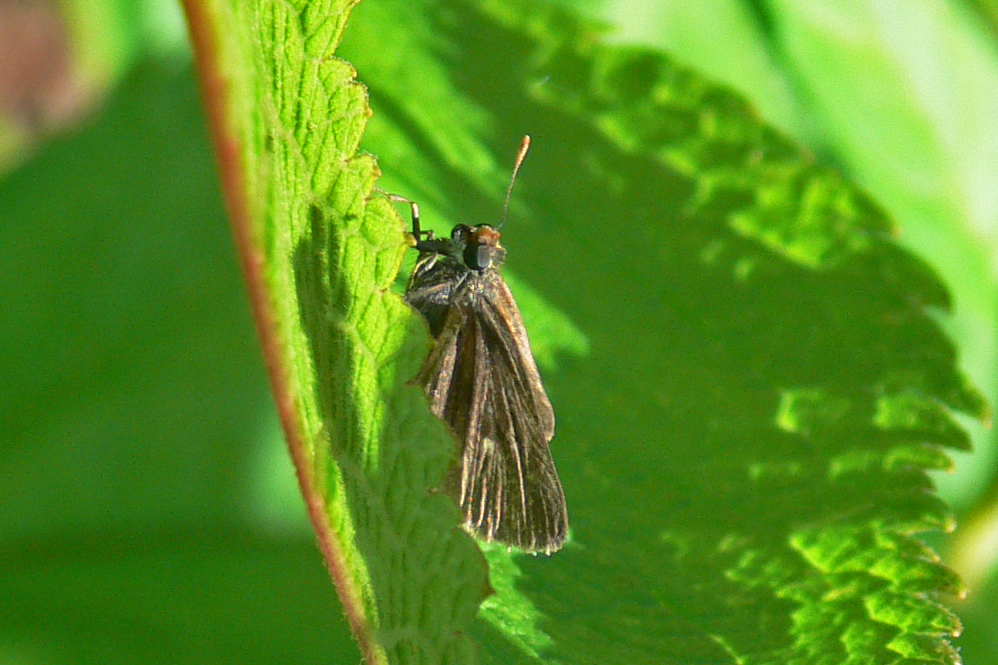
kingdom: Animalia
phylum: Arthropoda
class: Insecta
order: Lepidoptera
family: Hesperiidae
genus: Euphyes
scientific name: Euphyes vestris
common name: Dun skipper
